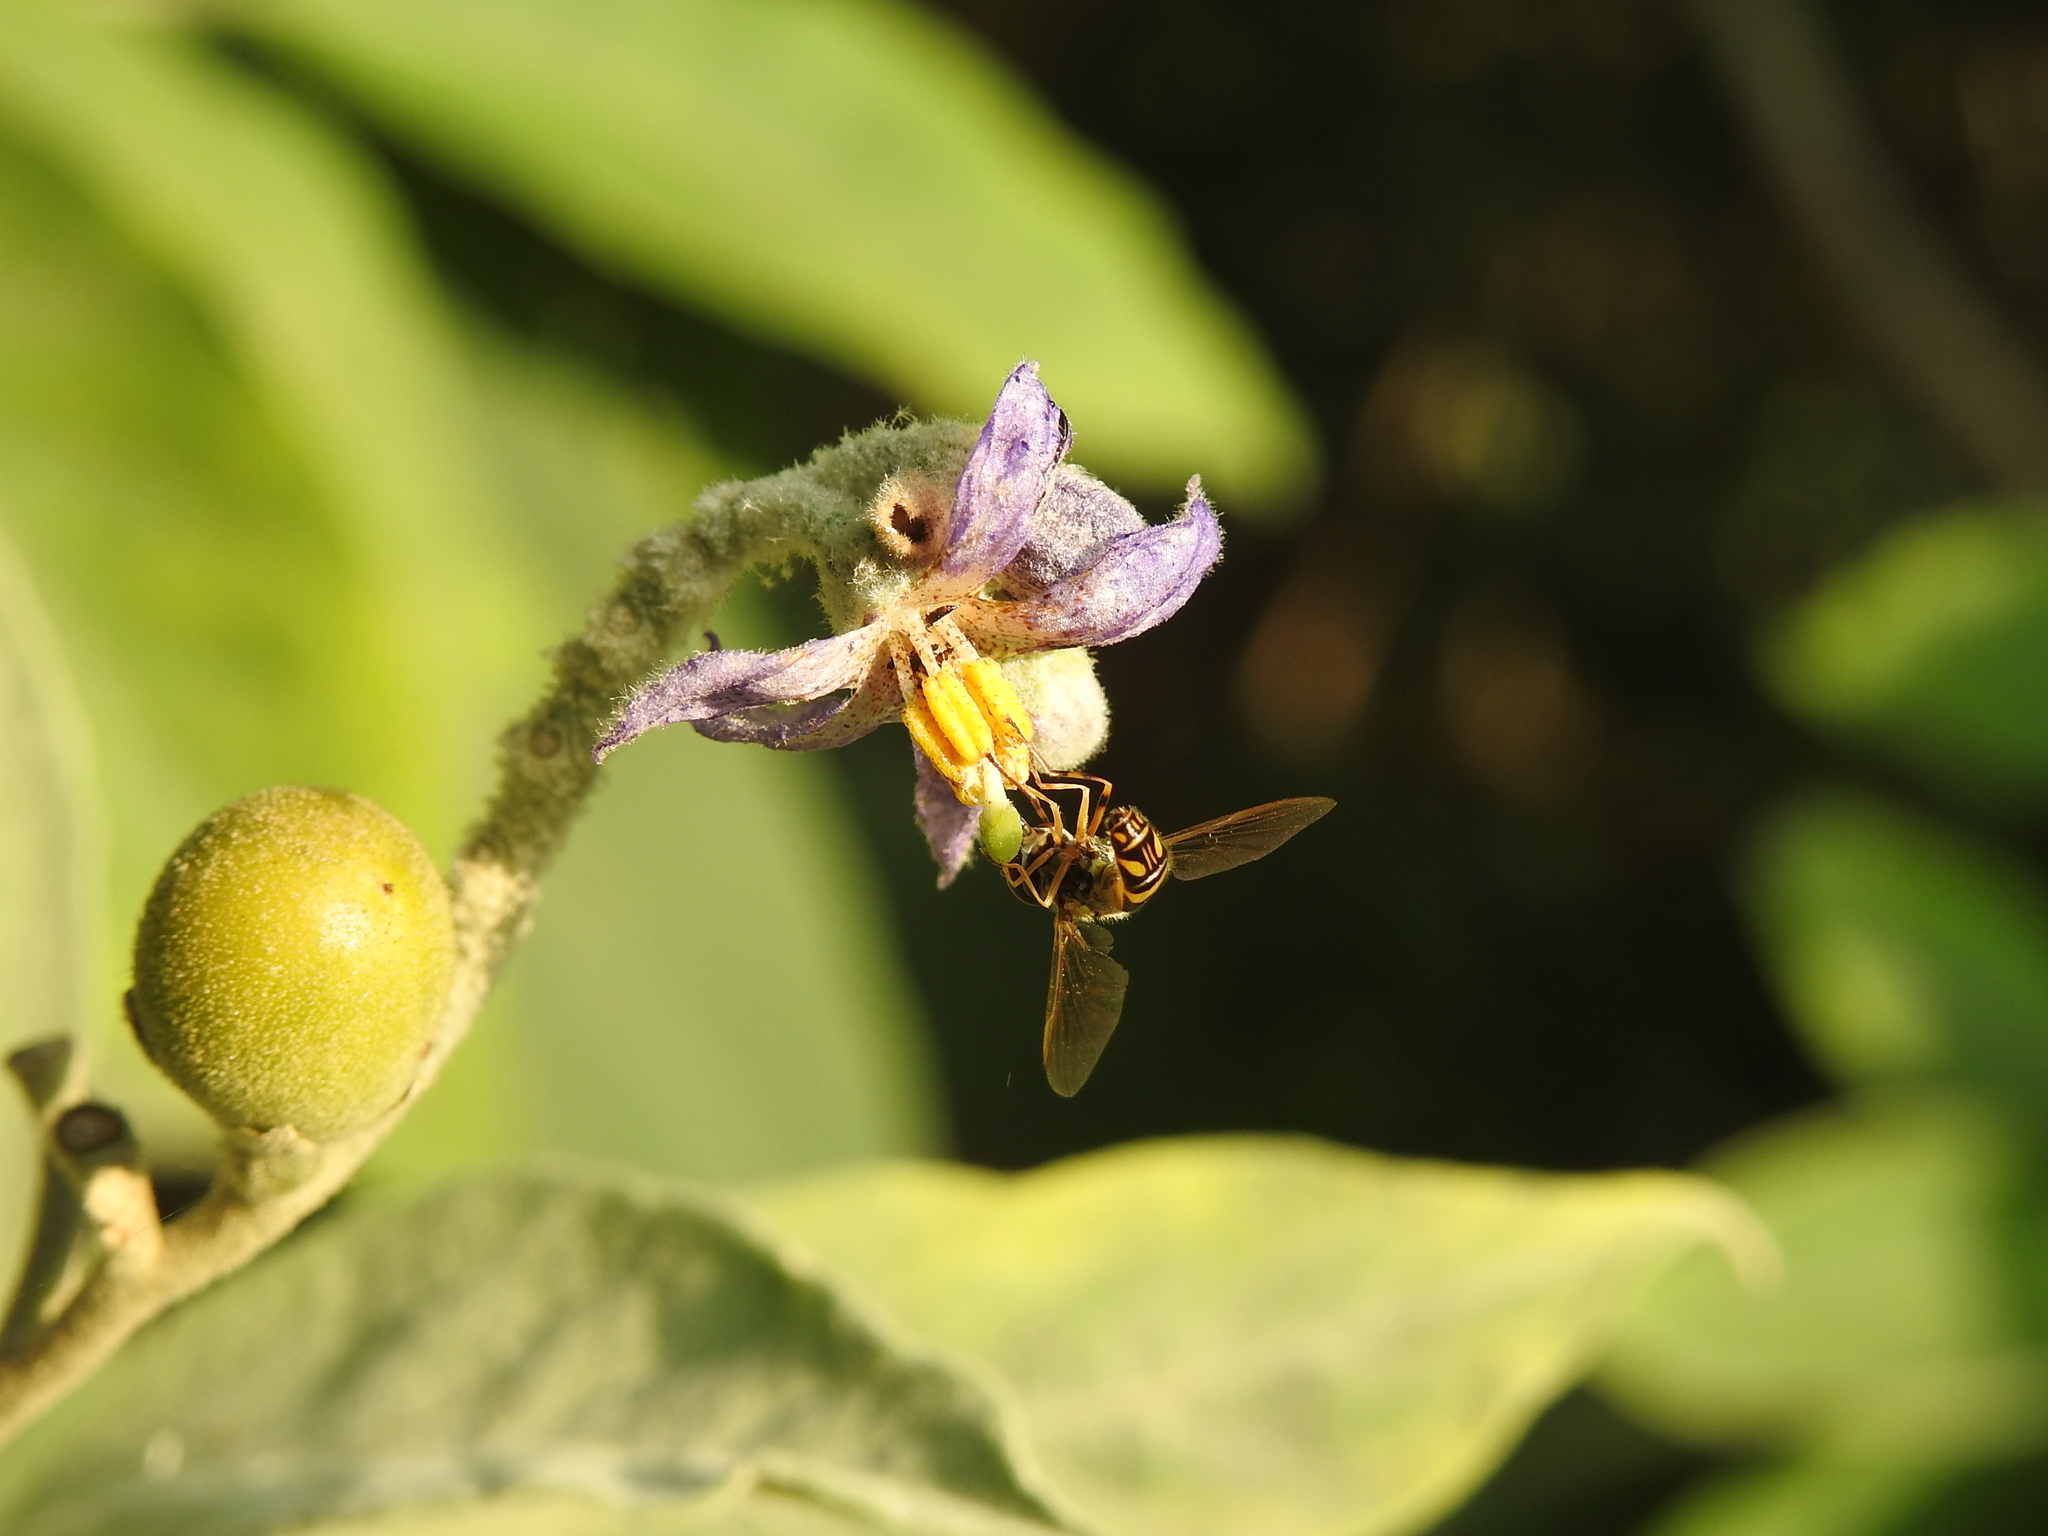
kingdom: Plantae
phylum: Tracheophyta
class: Magnoliopsida
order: Solanales
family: Solanaceae
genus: Solanum
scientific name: Solanum granulosoleprosum
